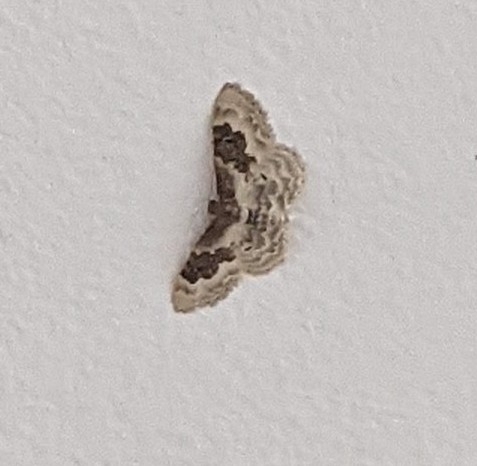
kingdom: Animalia
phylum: Arthropoda
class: Insecta
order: Lepidoptera
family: Geometridae
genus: Idaea
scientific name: Idaea rusticata
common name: Least carpet
